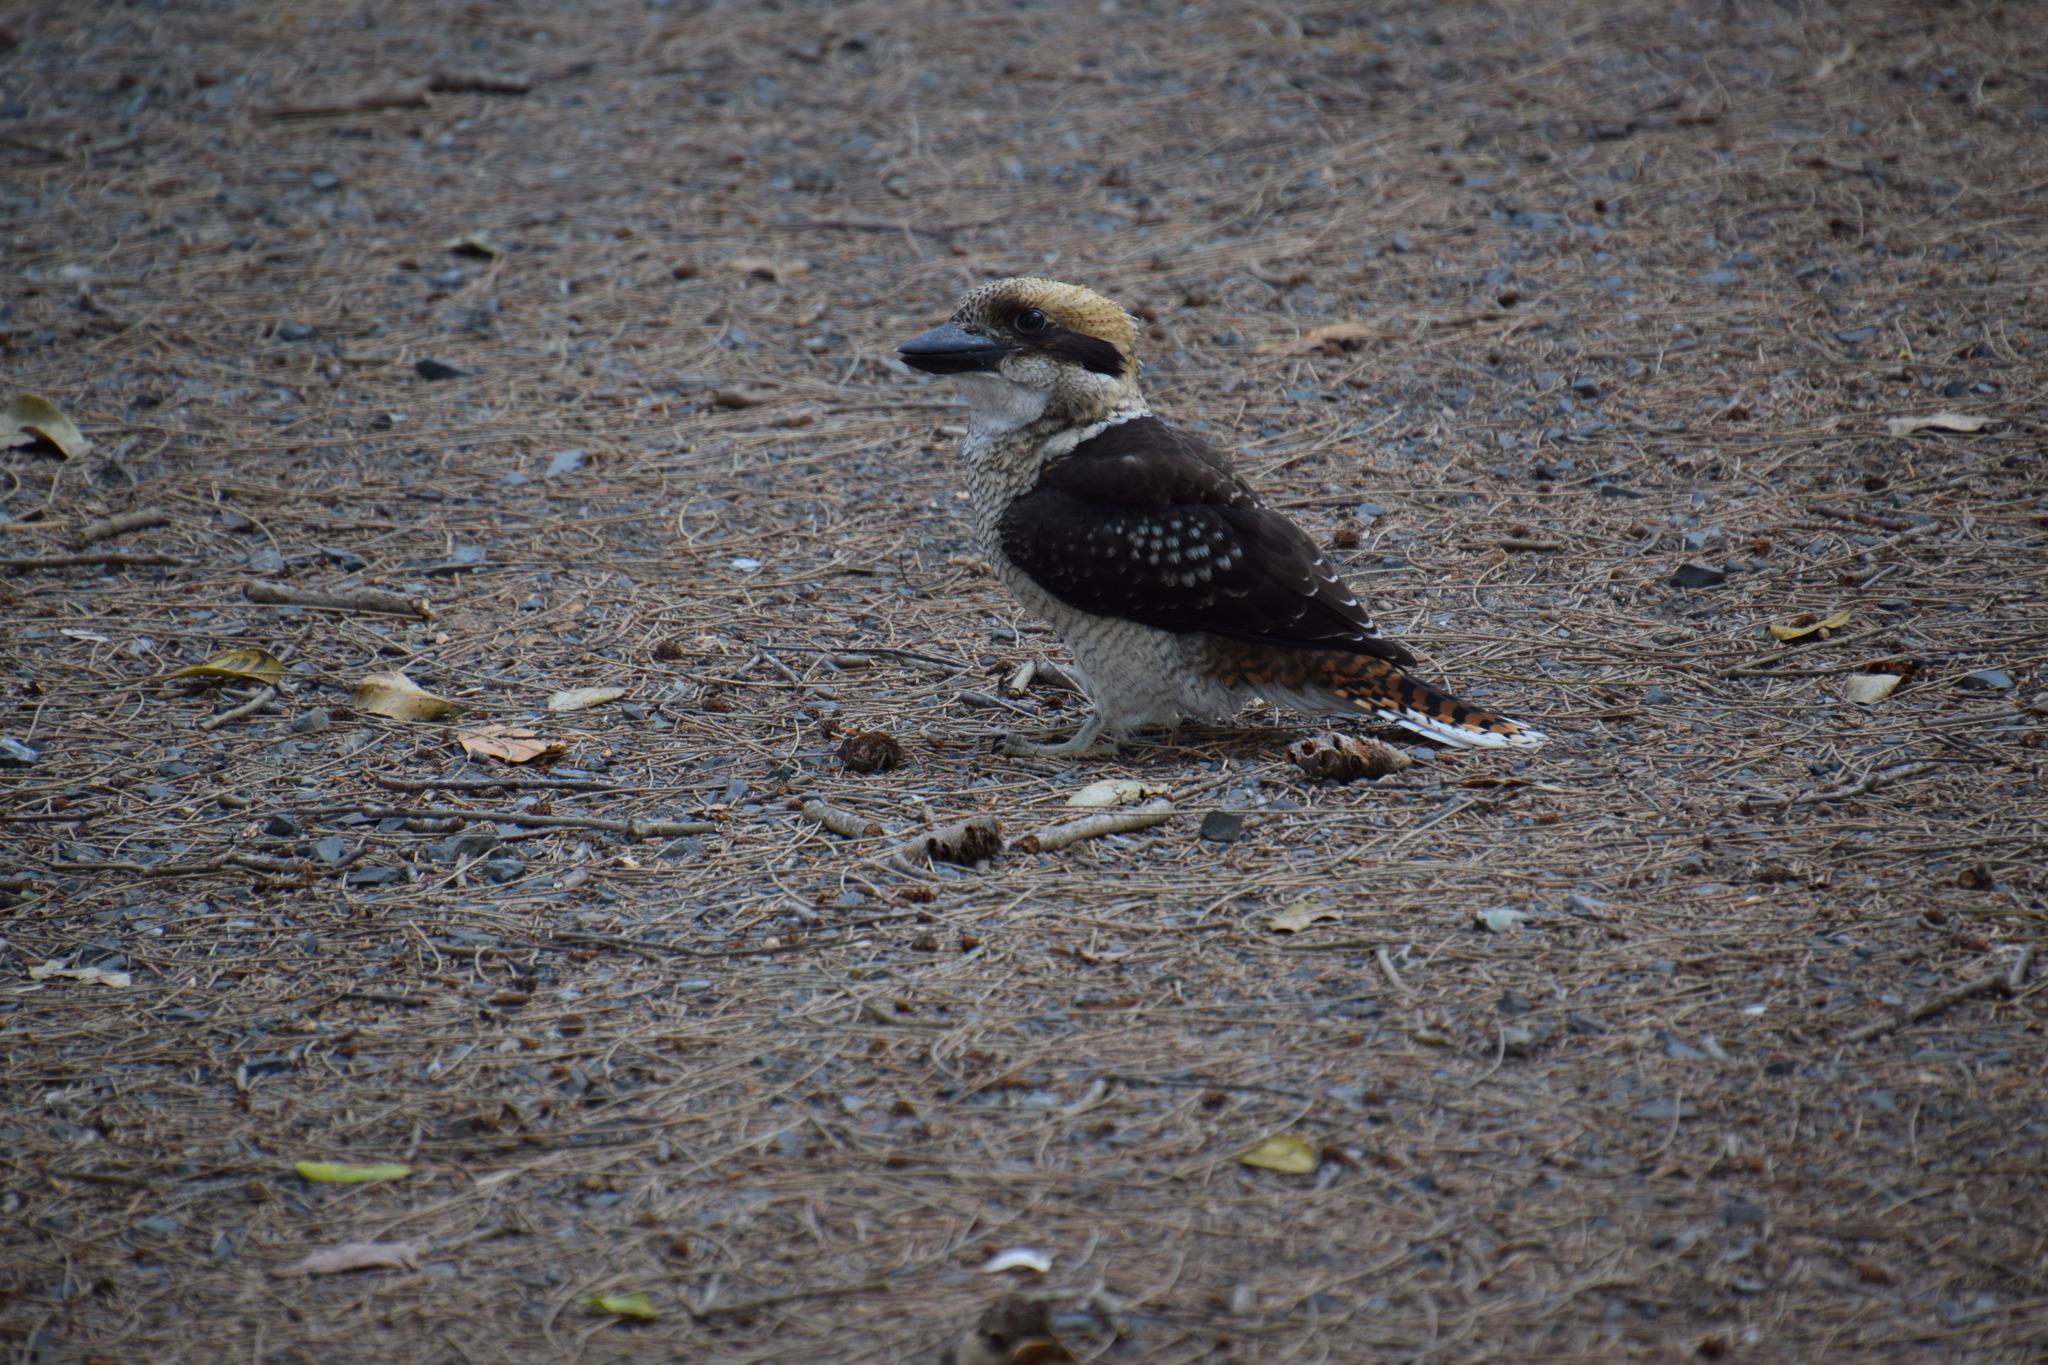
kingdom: Animalia
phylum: Chordata
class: Aves
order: Coraciiformes
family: Alcedinidae
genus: Dacelo
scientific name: Dacelo novaeguineae
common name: Laughing kookaburra
